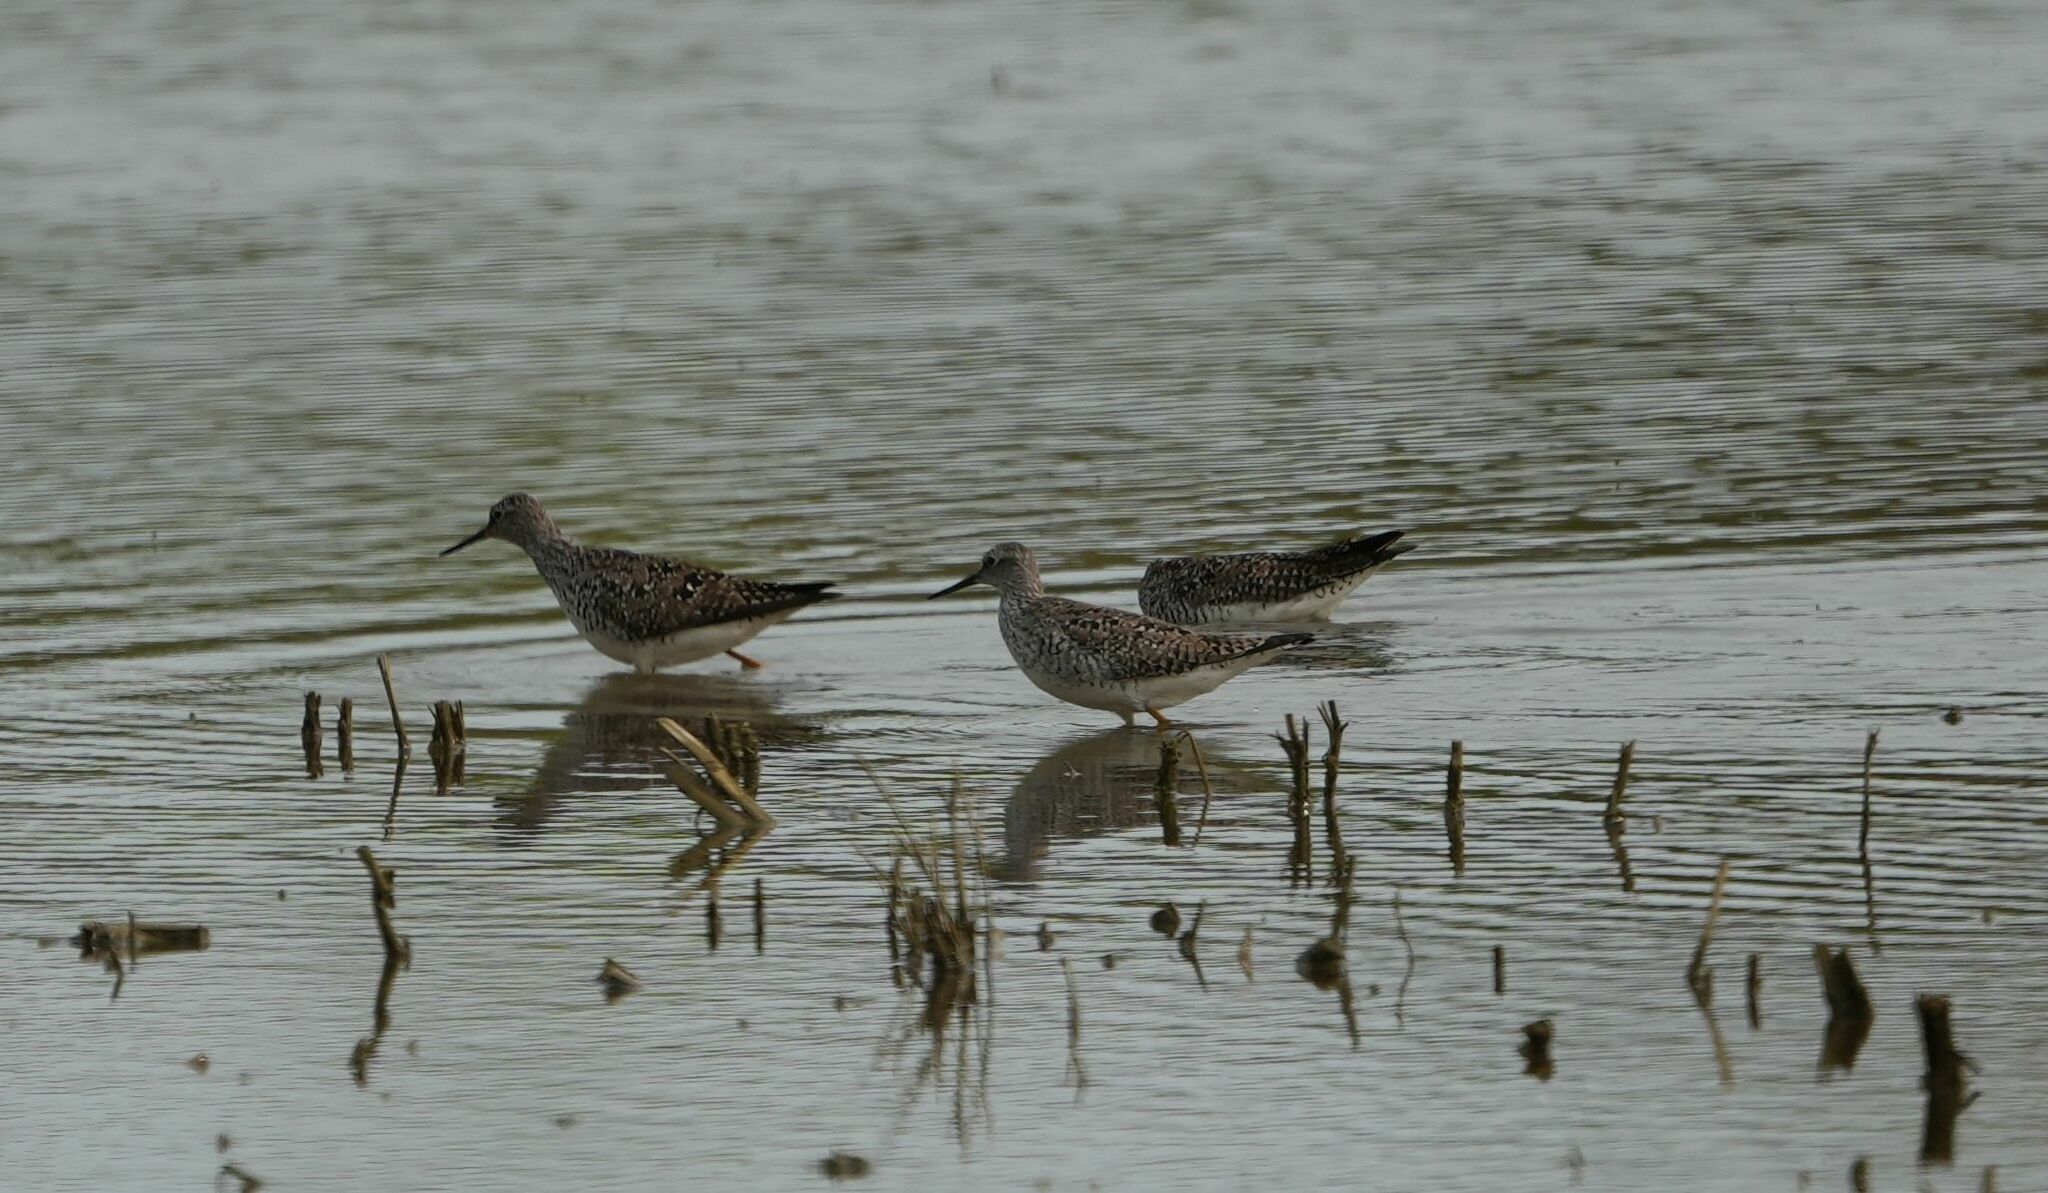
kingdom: Animalia
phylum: Chordata
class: Aves
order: Charadriiformes
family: Scolopacidae
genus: Tringa
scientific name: Tringa flavipes
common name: Lesser yellowlegs
